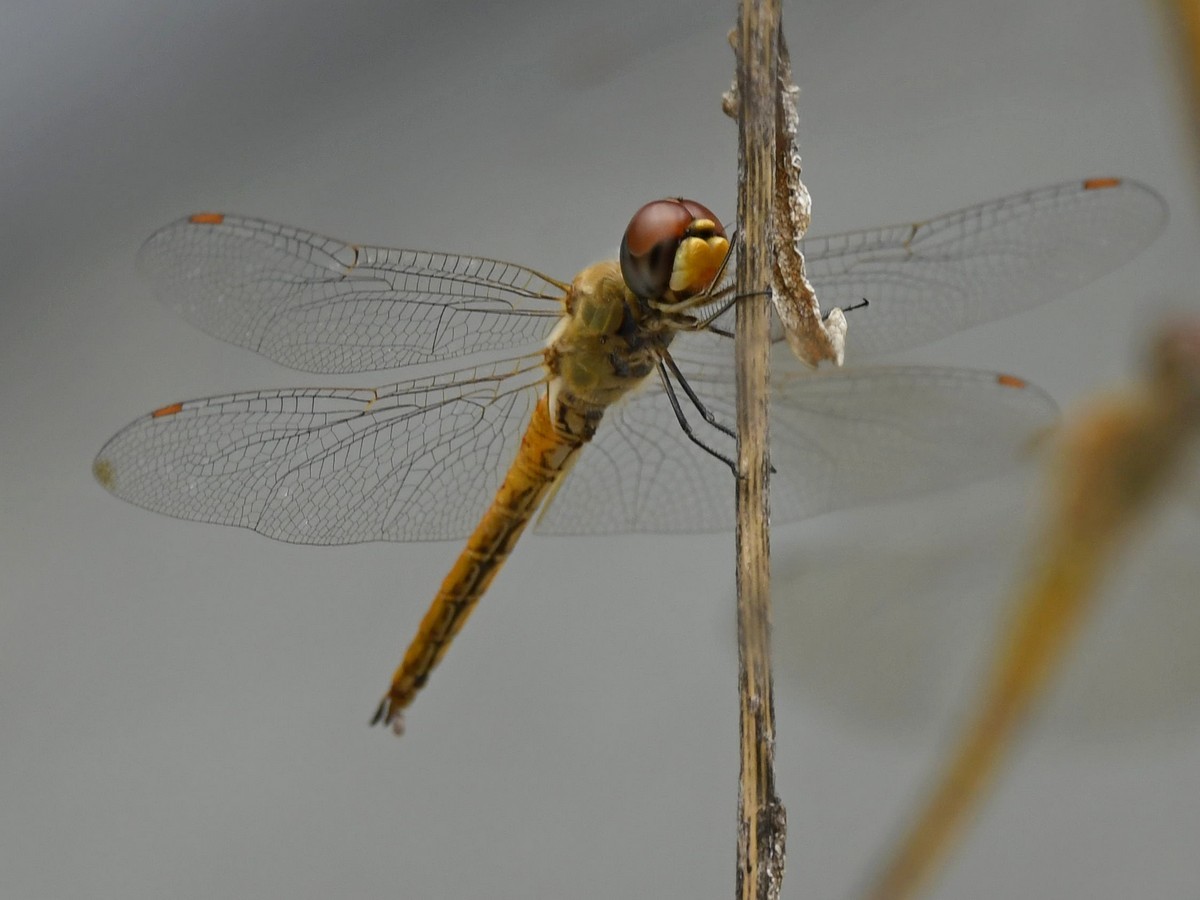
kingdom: Animalia
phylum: Arthropoda
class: Insecta
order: Odonata
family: Libellulidae
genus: Pantala
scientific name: Pantala flavescens
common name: Wandering glider
